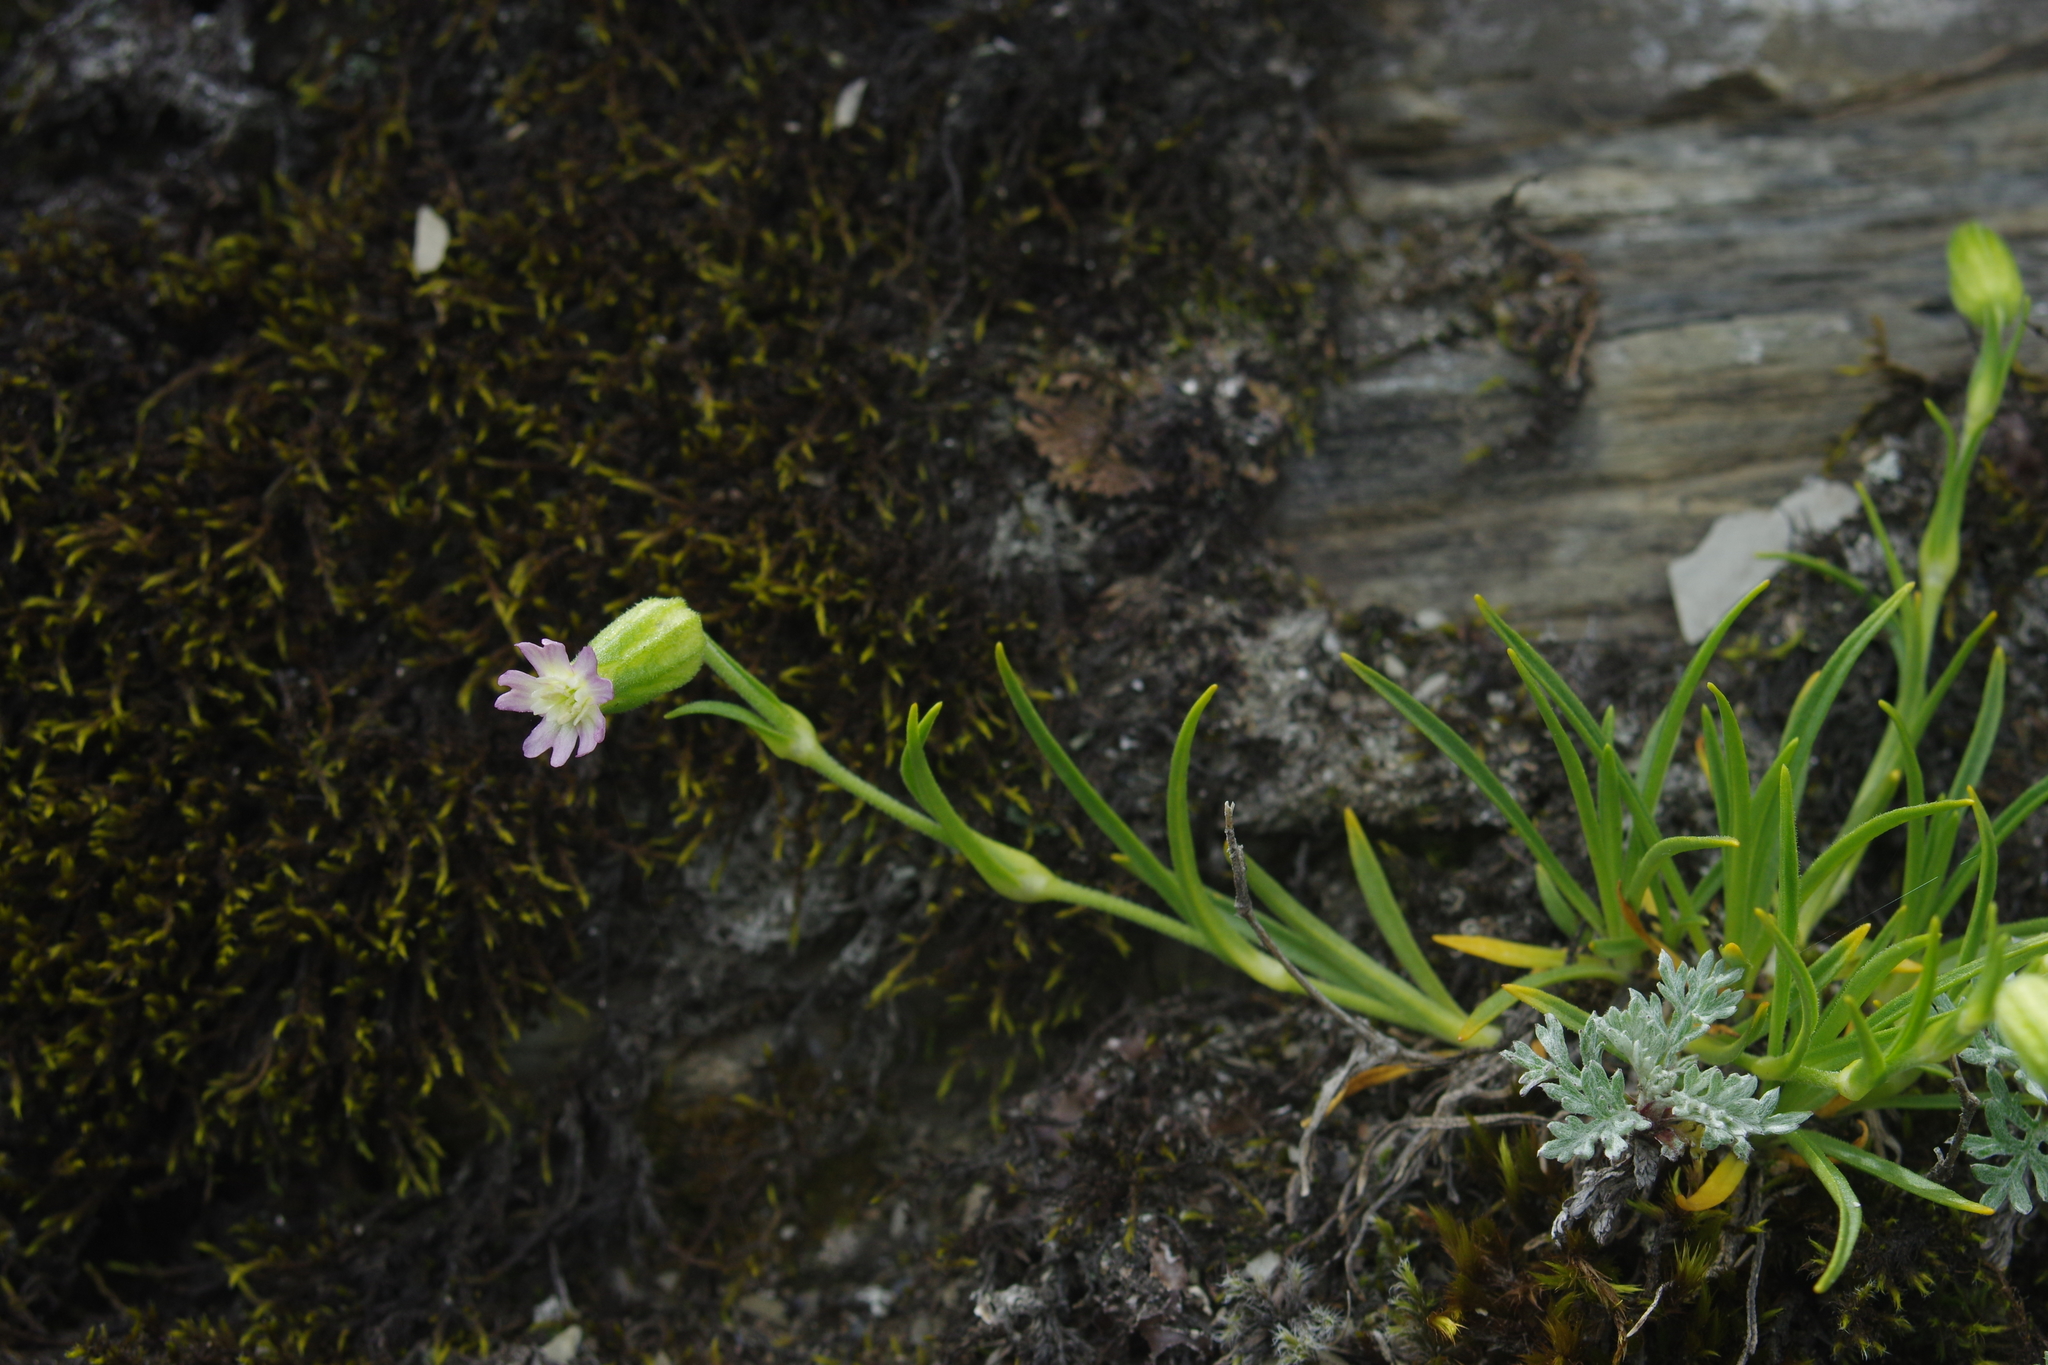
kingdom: Plantae
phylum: Tracheophyta
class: Magnoliopsida
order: Caryophyllales
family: Caryophyllaceae
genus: Silene
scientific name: Silene ohwii
